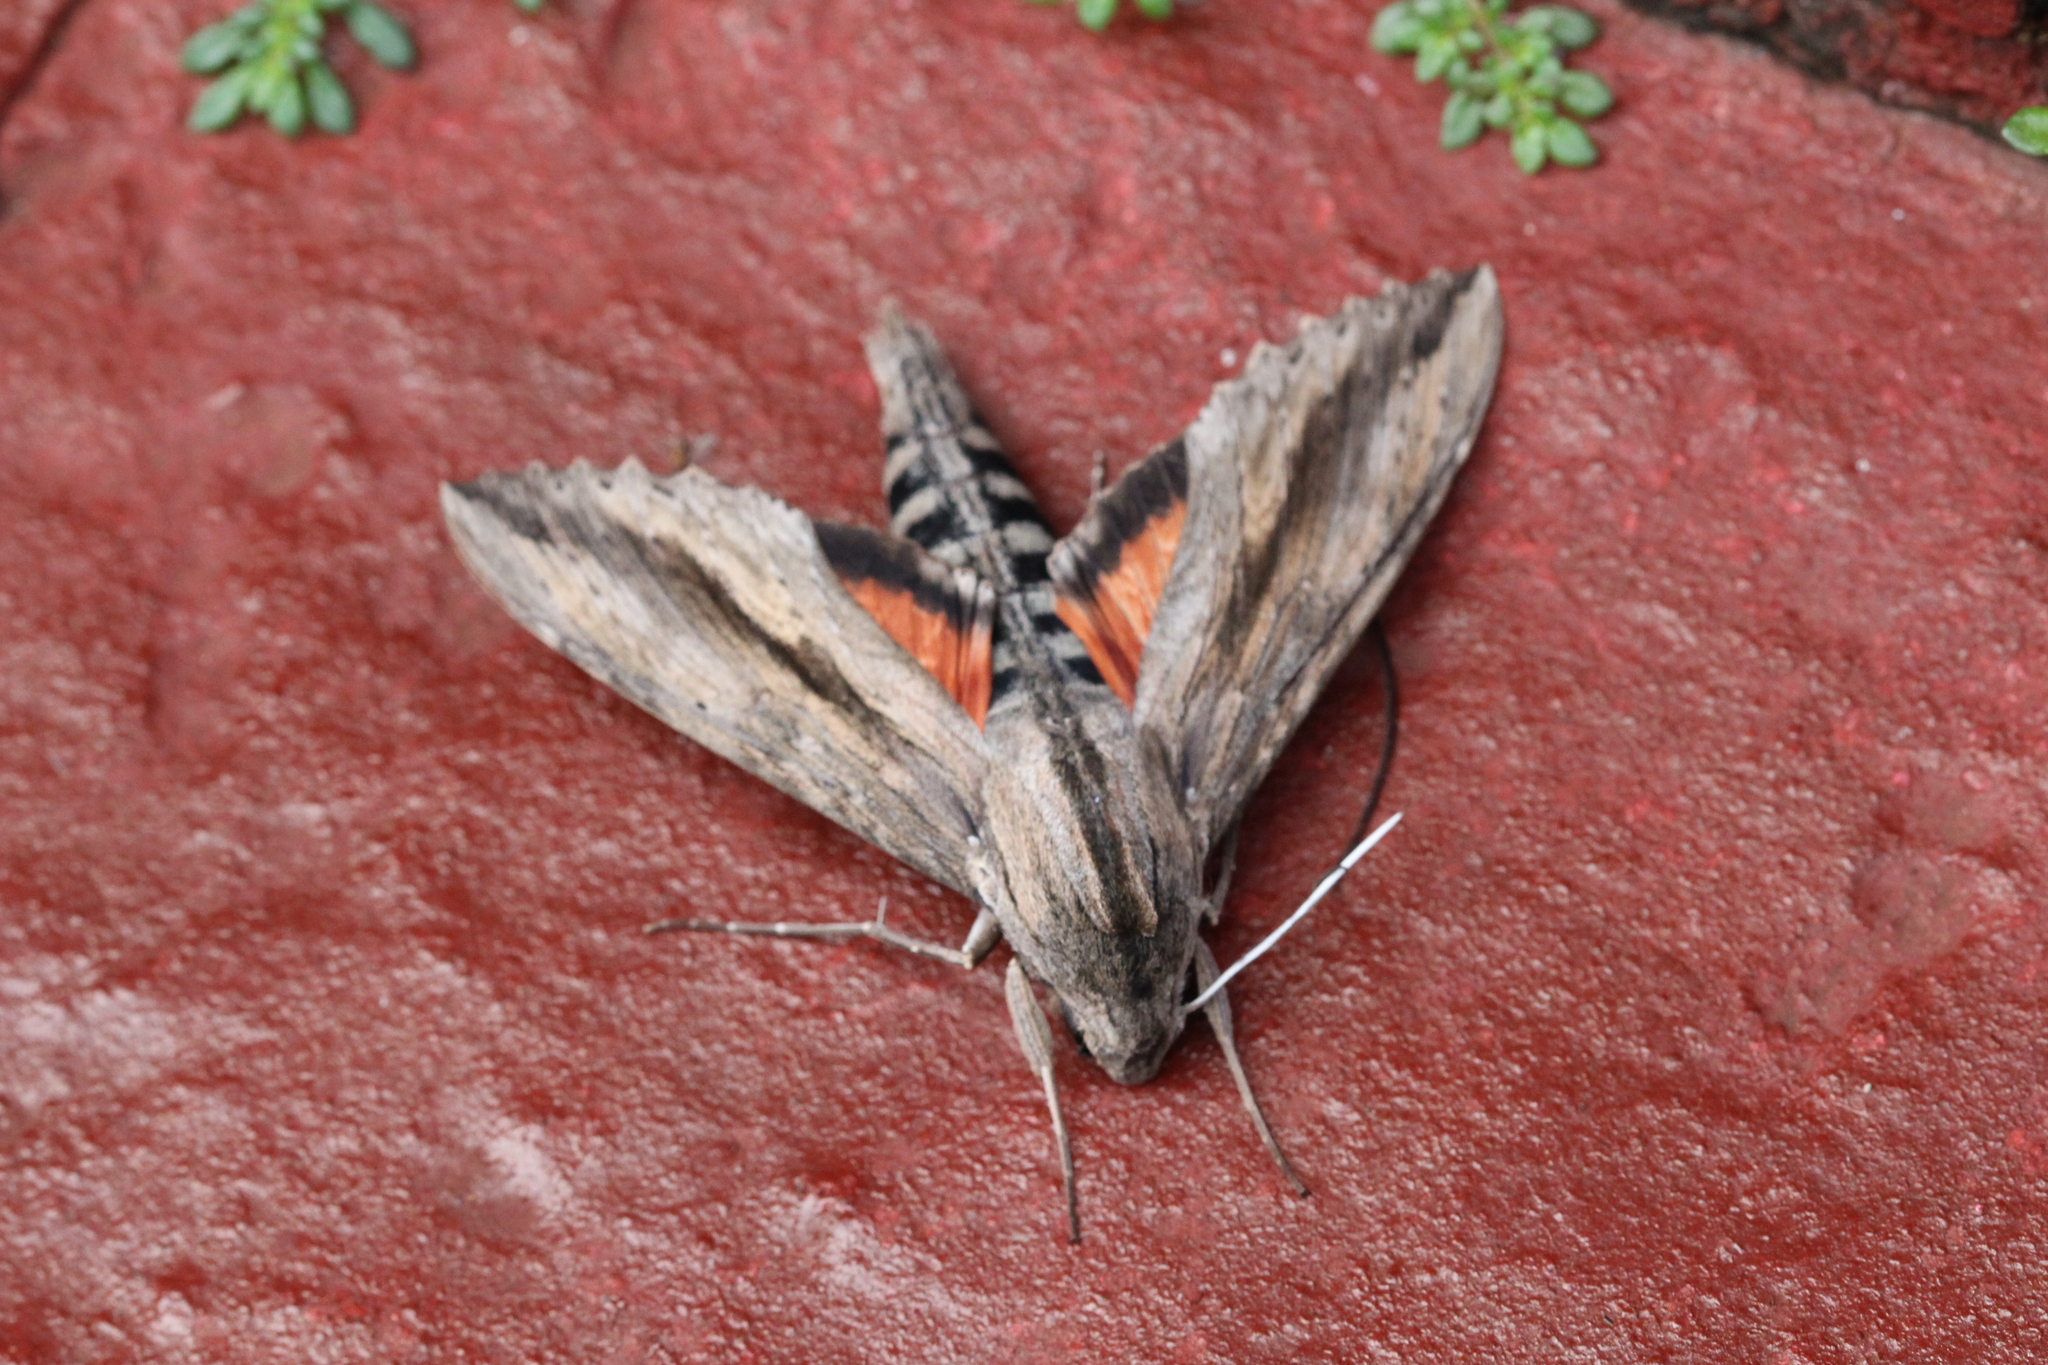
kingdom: Animalia
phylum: Arthropoda
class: Insecta
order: Lepidoptera
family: Sphingidae
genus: Erinnyis
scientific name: Erinnyis ello
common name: Ello sphinx
